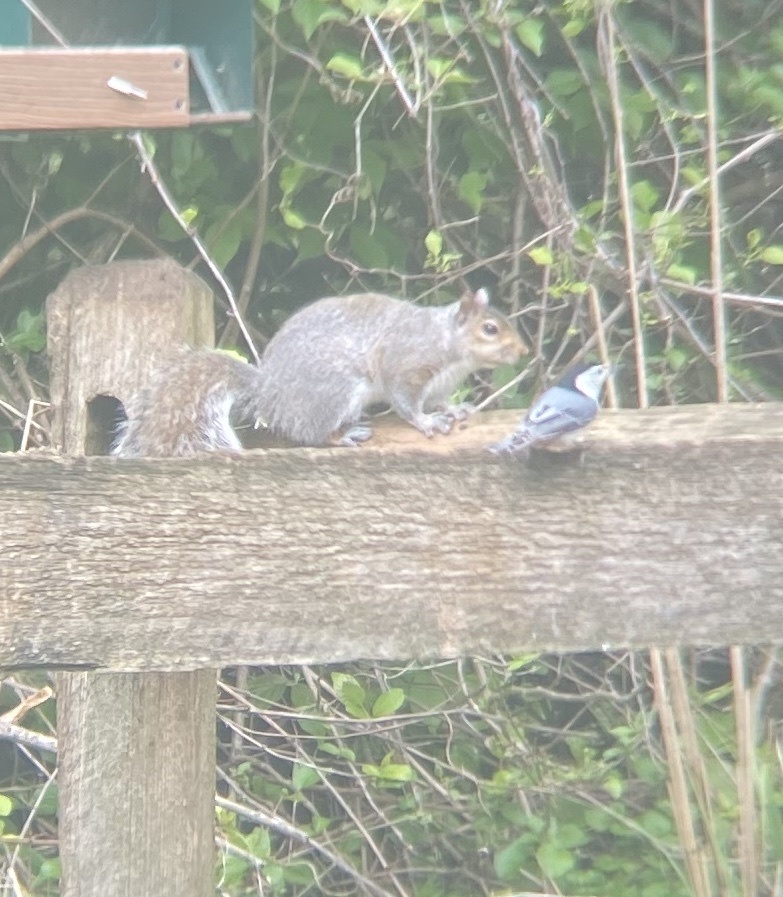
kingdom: Animalia
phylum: Chordata
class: Aves
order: Passeriformes
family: Sittidae
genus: Sitta
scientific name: Sitta carolinensis
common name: White-breasted nuthatch
